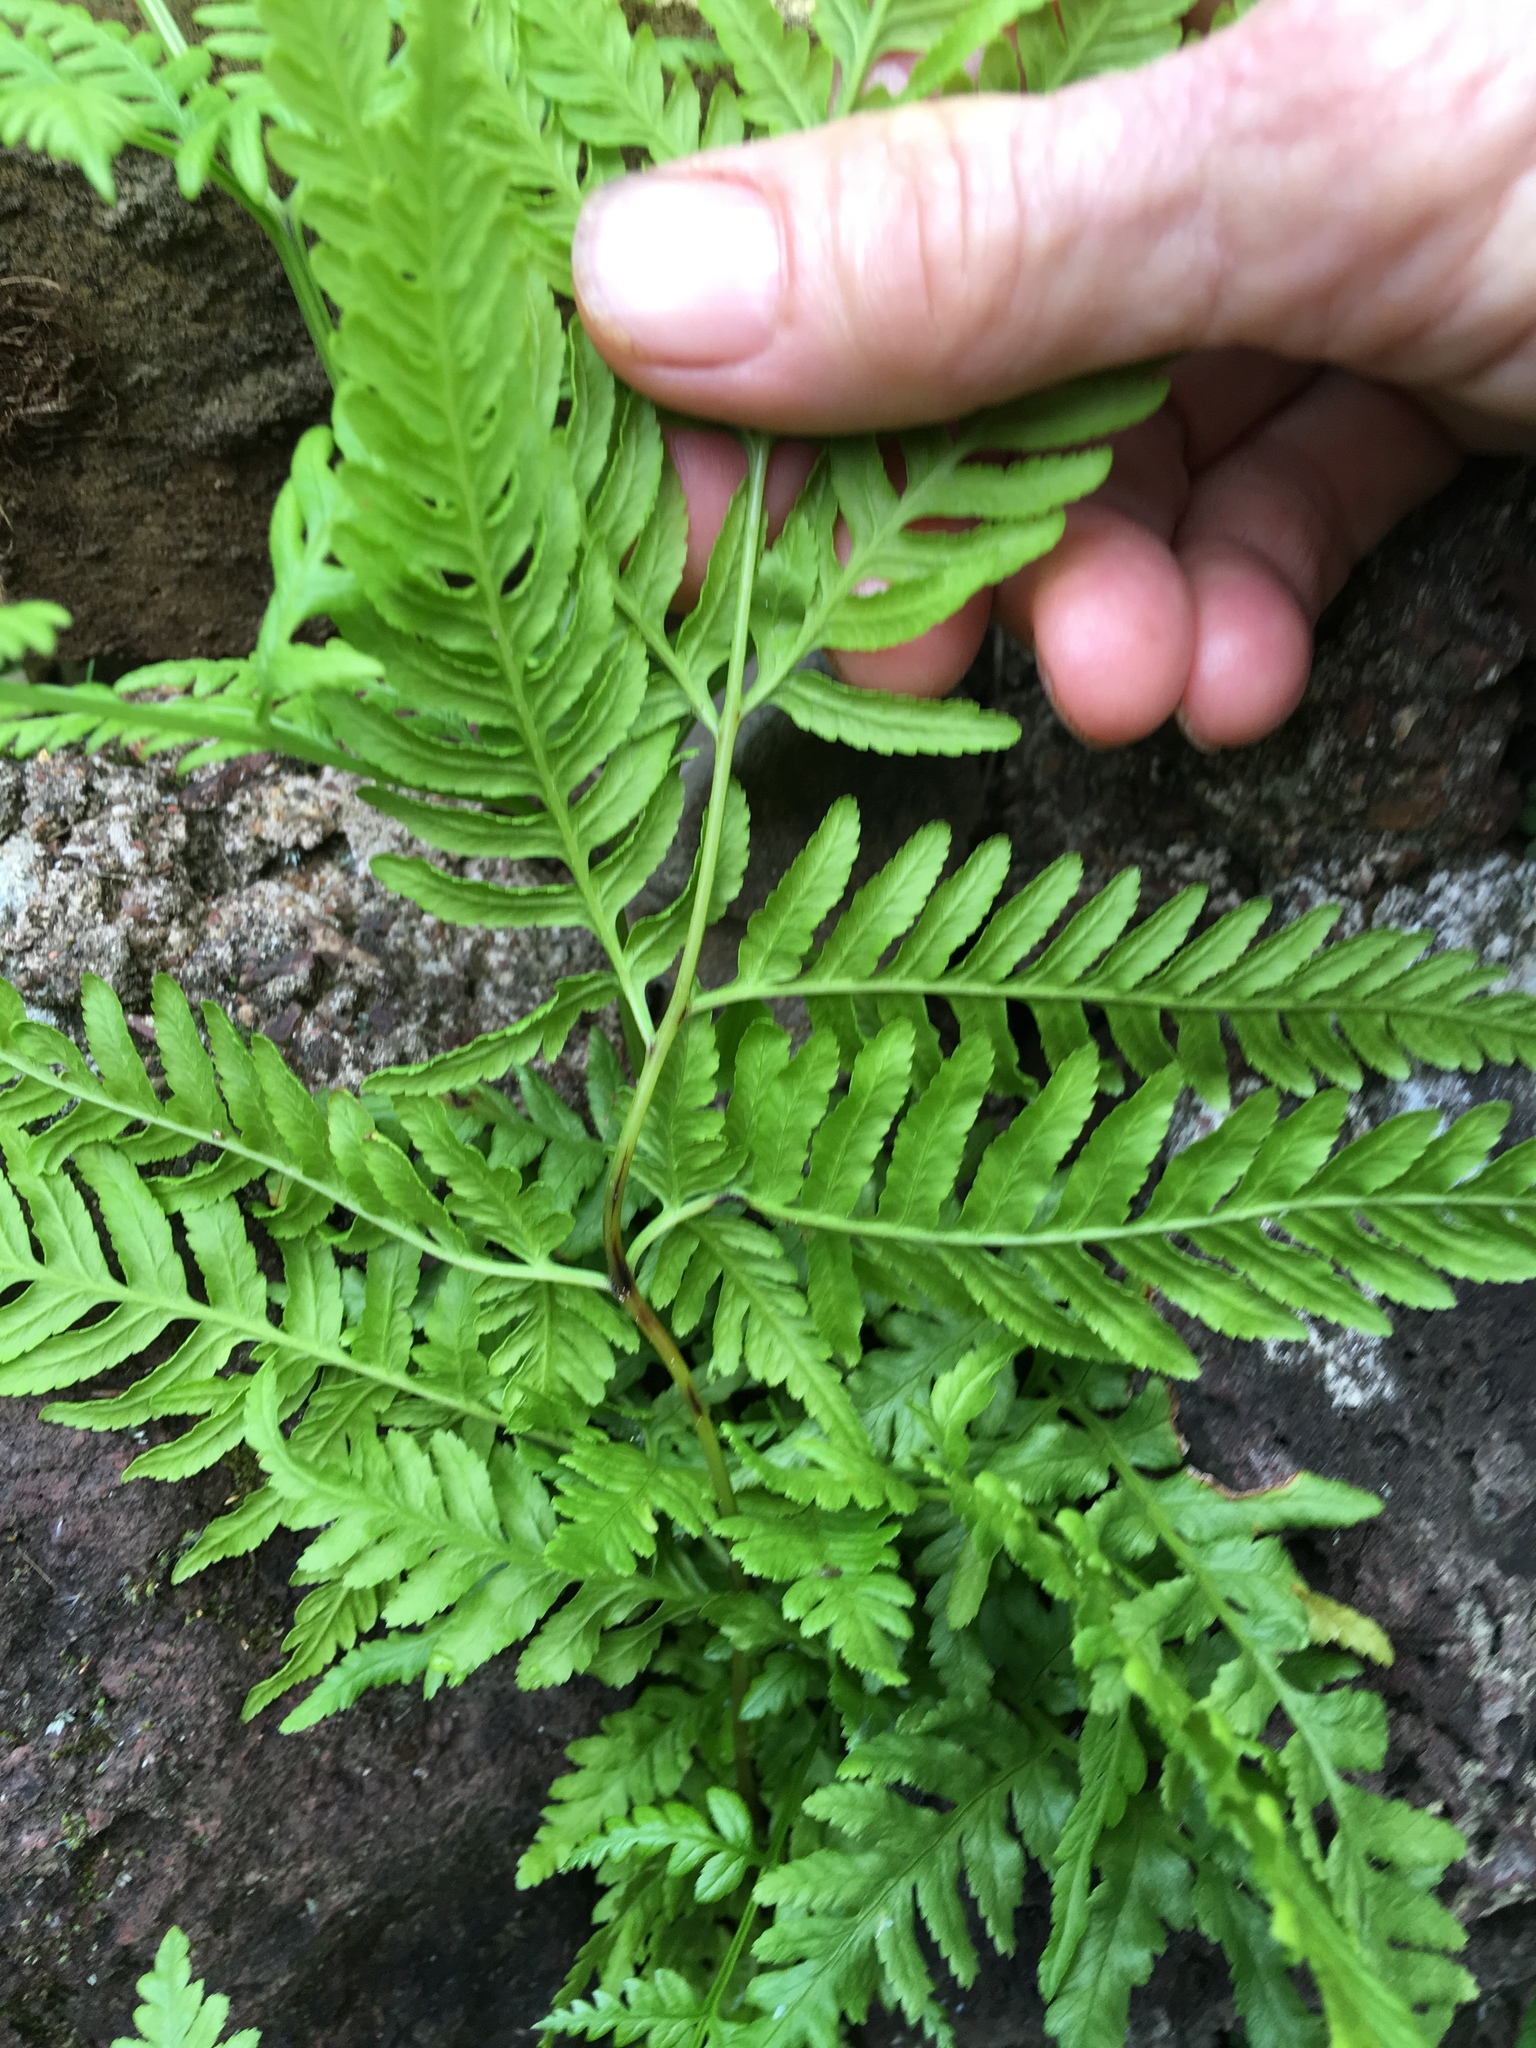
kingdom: Plantae
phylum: Tracheophyta
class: Polypodiopsida
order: Polypodiales
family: Pteridaceae
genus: Pteris
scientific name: Pteris tremula
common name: Australian brake
